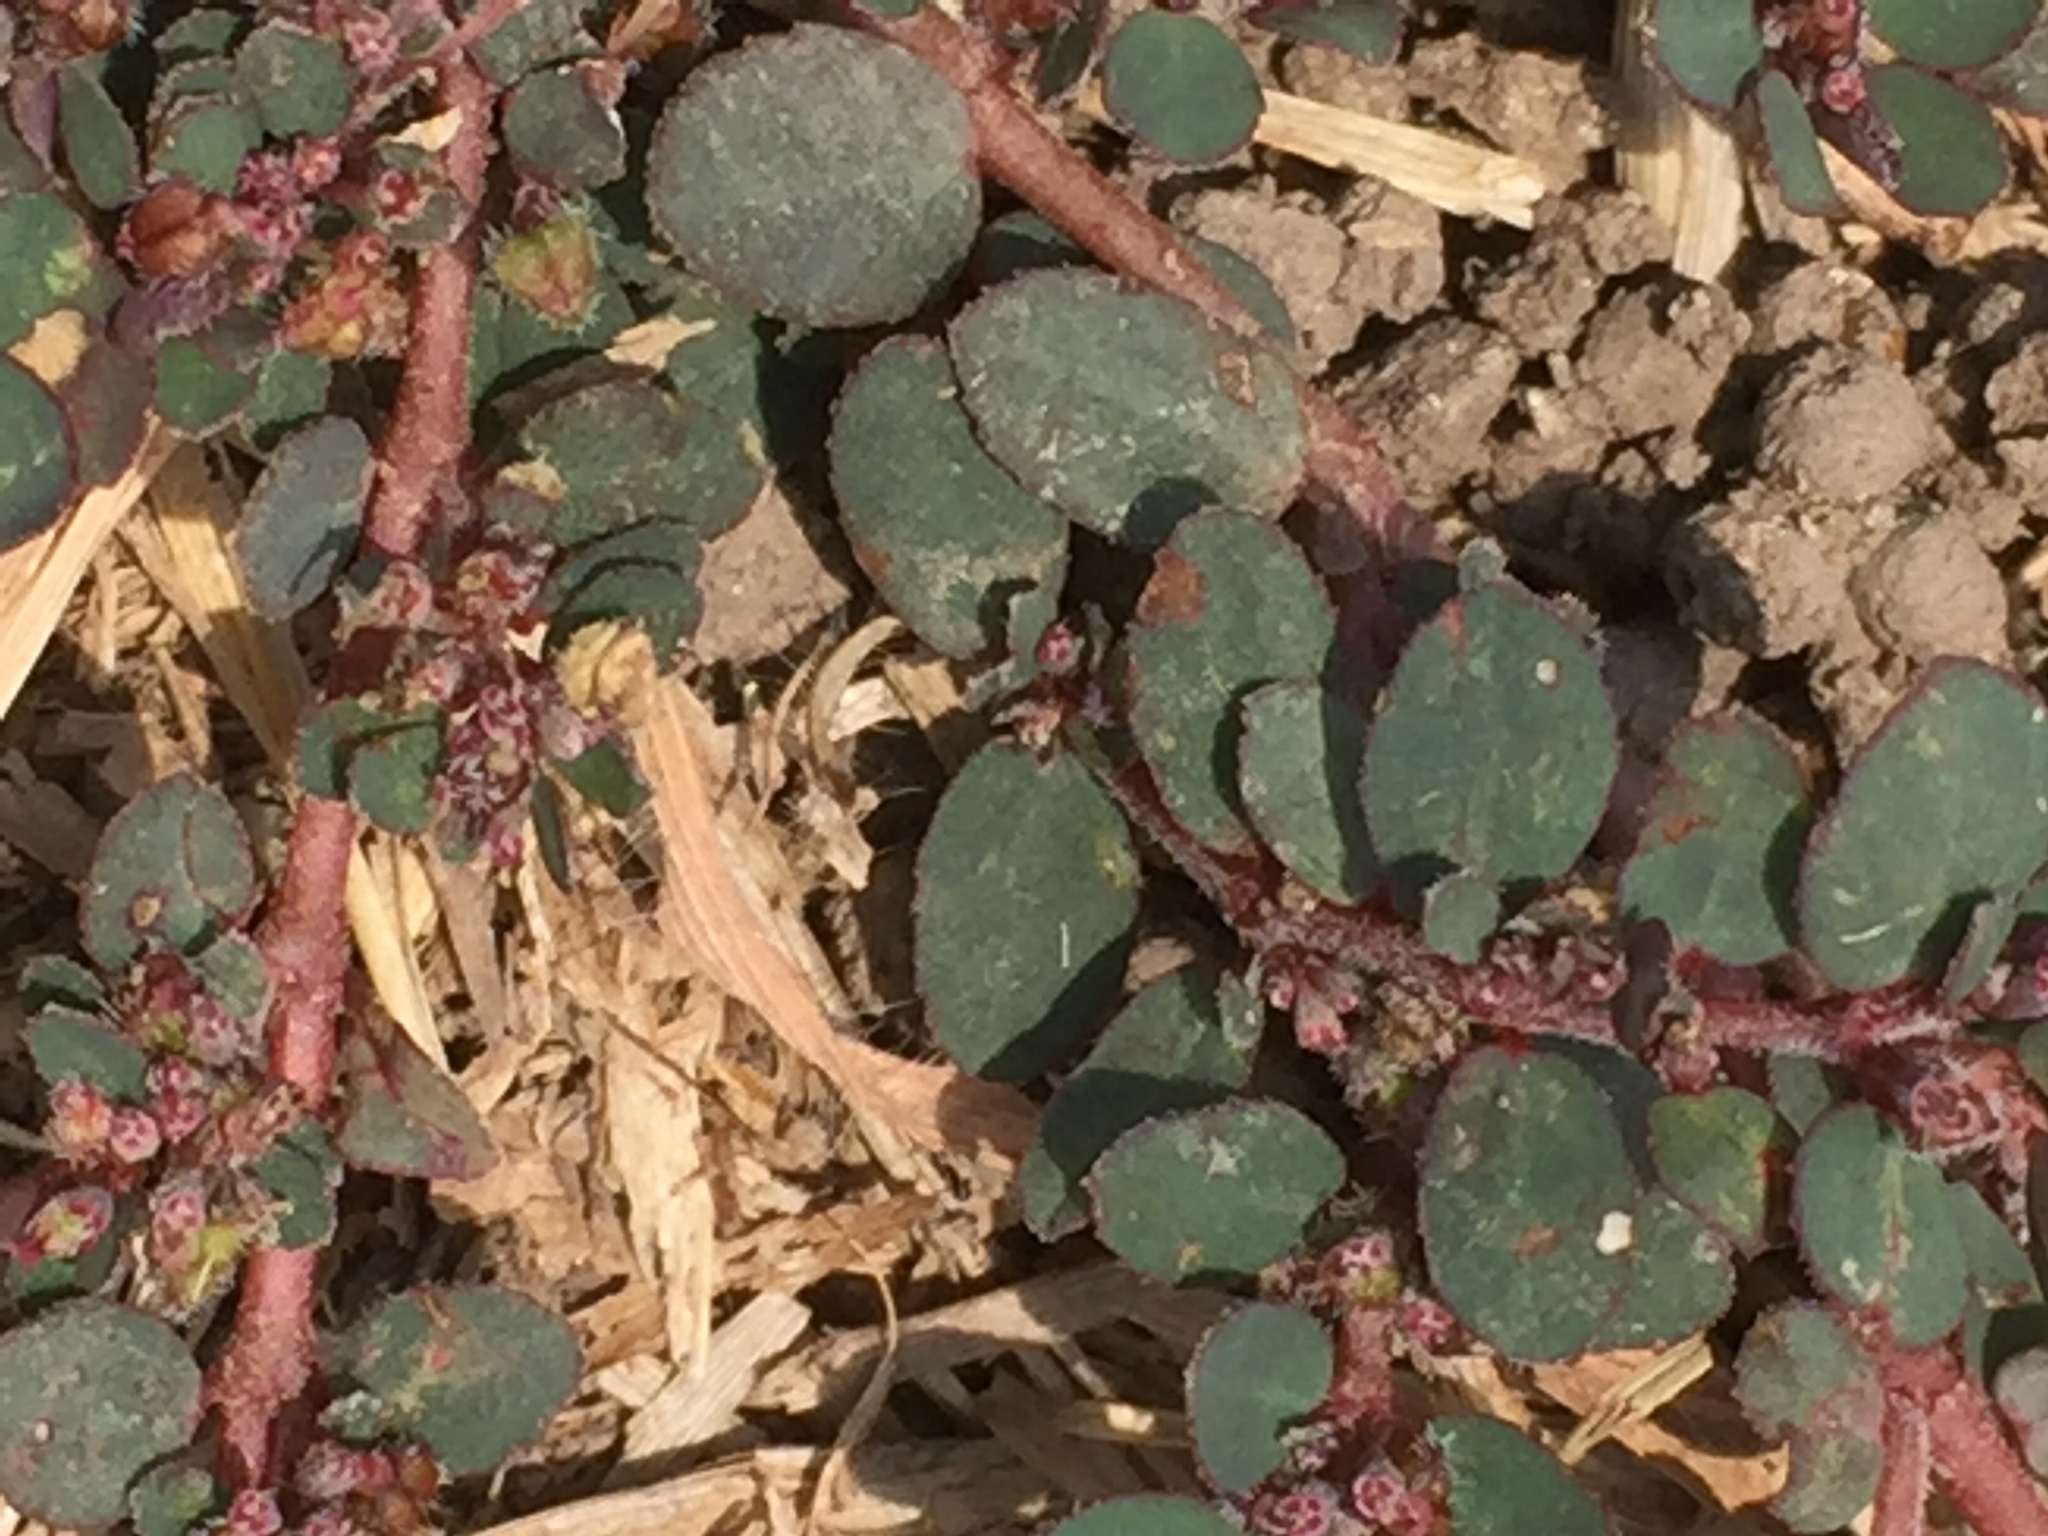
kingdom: Plantae
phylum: Tracheophyta
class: Magnoliopsida
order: Malpighiales
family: Euphorbiaceae
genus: Euphorbia
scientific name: Euphorbia prostrata
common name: Prostrate sandmat
